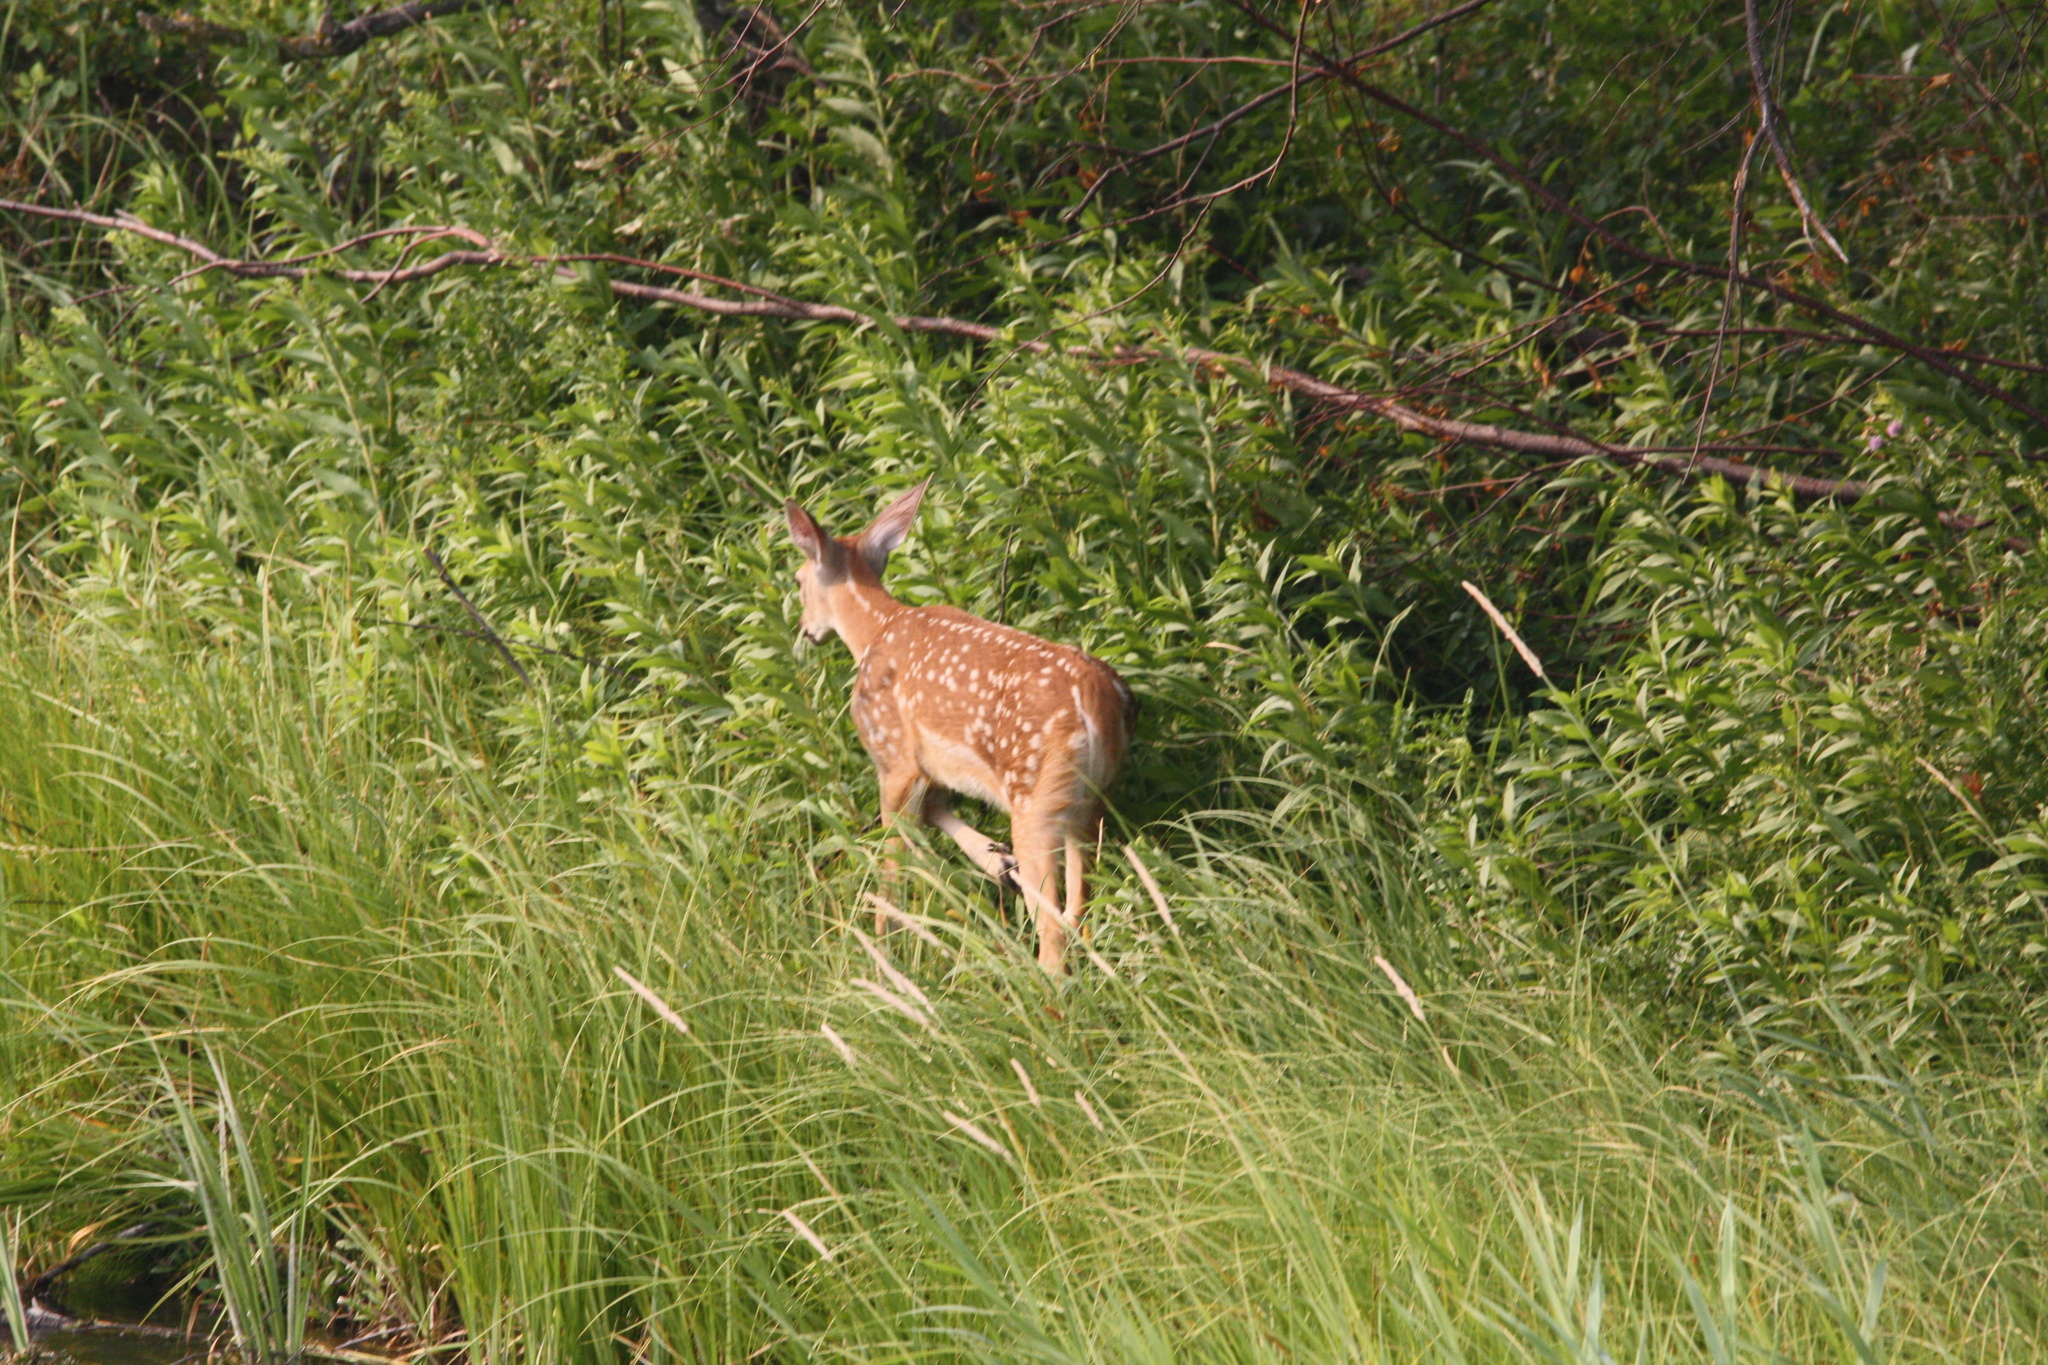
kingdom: Animalia
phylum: Chordata
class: Mammalia
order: Artiodactyla
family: Cervidae
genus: Odocoileus
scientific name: Odocoileus virginianus
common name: White-tailed deer
